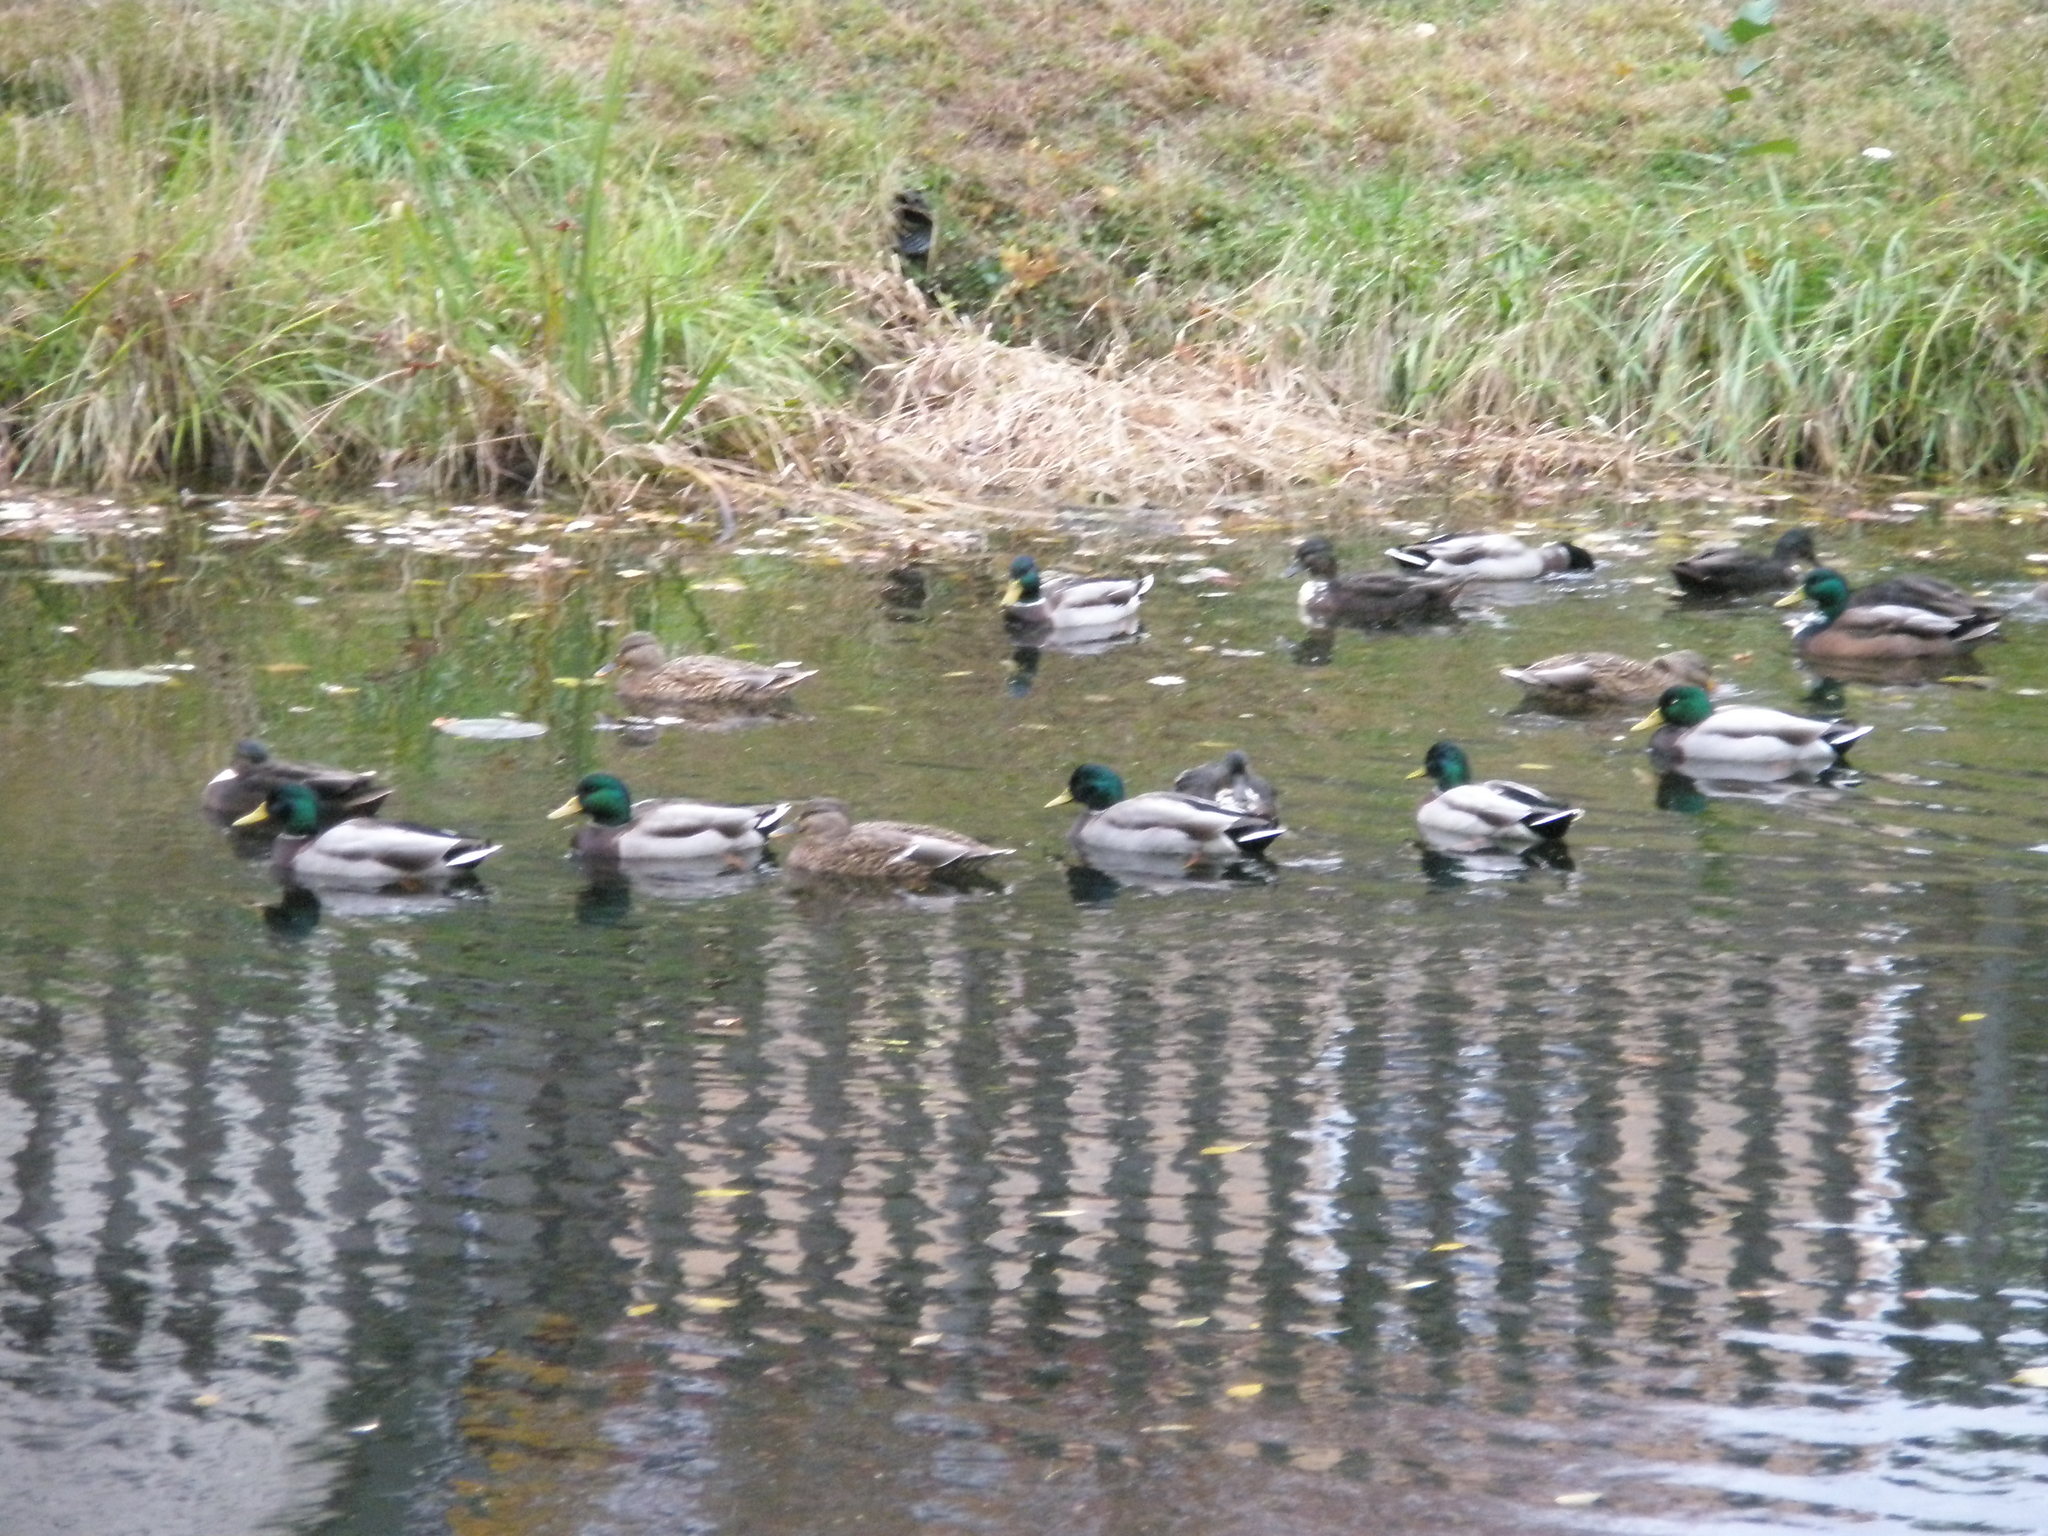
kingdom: Animalia
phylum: Chordata
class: Aves
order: Anseriformes
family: Anatidae
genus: Anas
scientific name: Anas platyrhynchos
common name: Mallard
